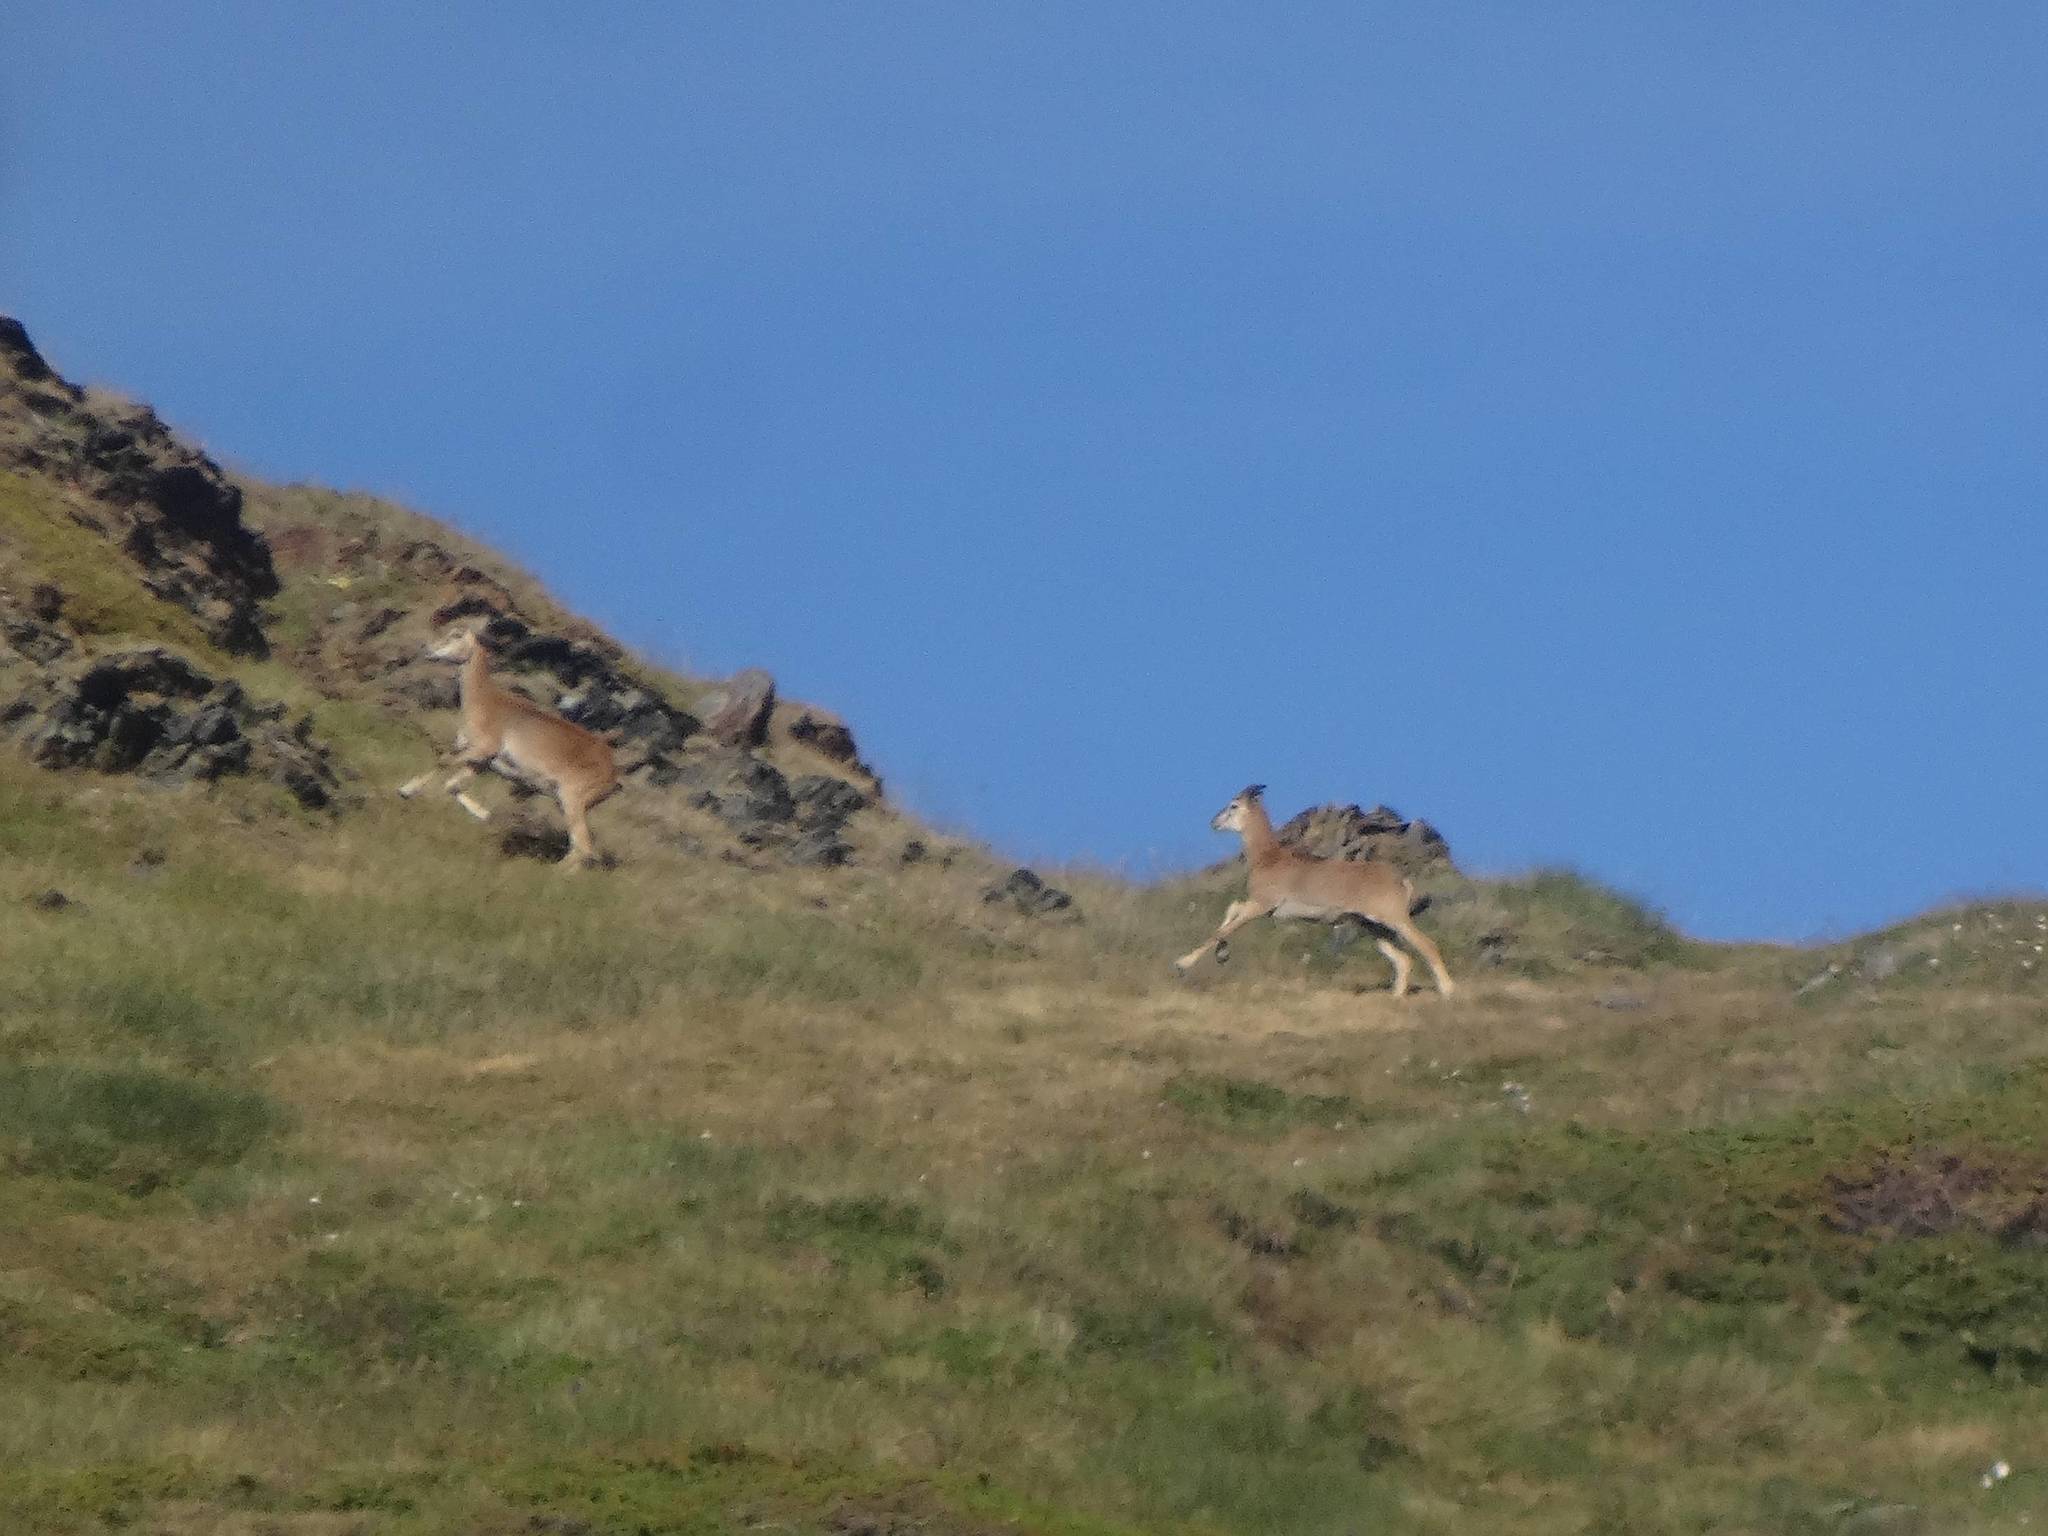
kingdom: Animalia
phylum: Chordata
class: Mammalia
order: Artiodactyla
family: Bovidae
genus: Capra
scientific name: Capra pyrenaica
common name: Spanish ibex
